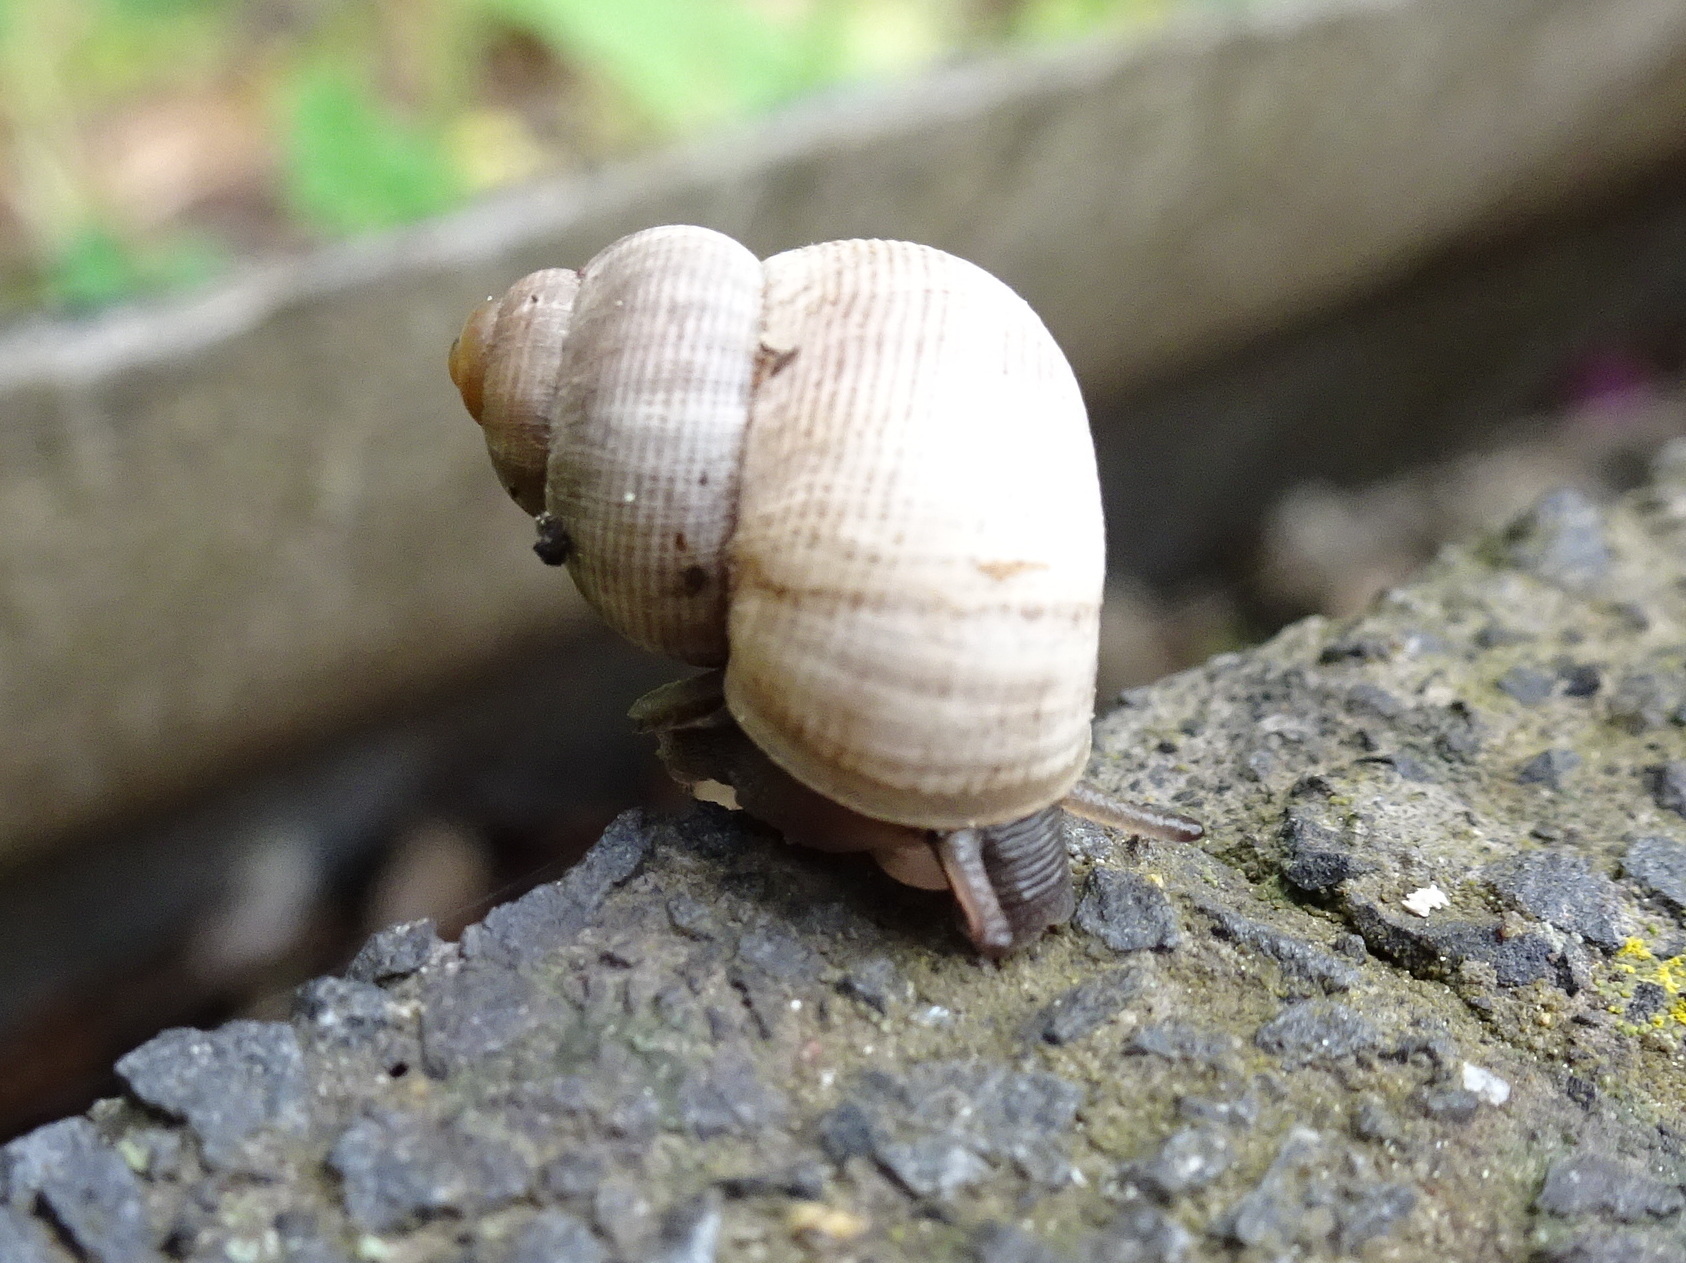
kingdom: Animalia
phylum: Mollusca
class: Gastropoda
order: Littorinimorpha
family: Pomatiidae
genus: Pomatias
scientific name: Pomatias elegans
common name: Red-mouthed snail
